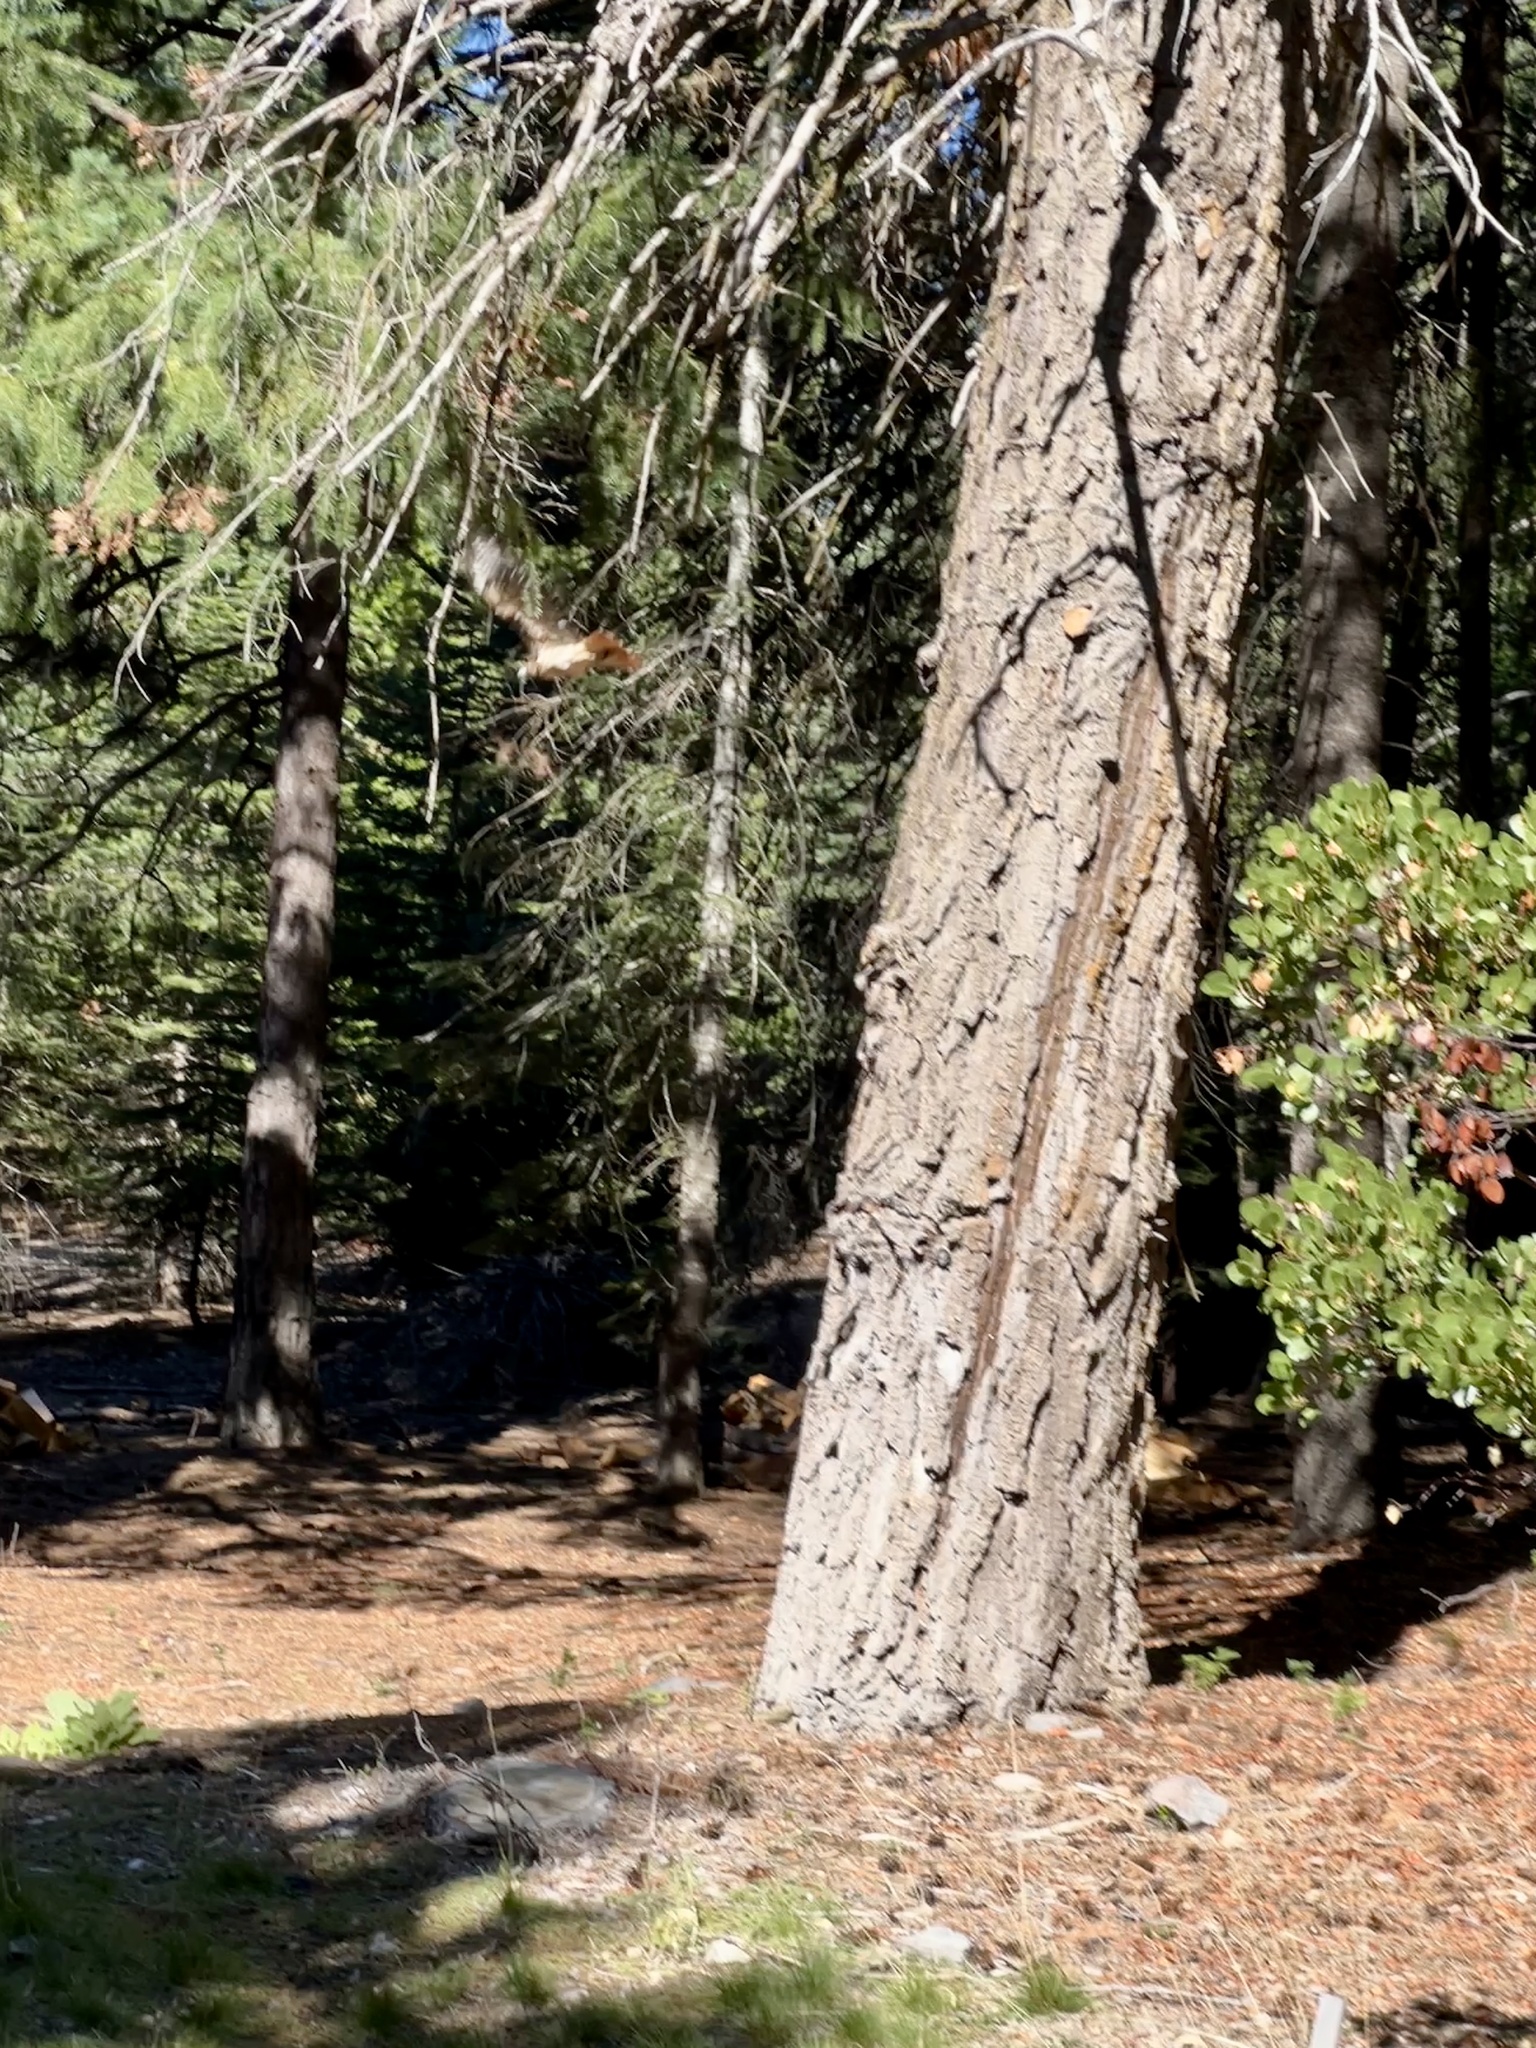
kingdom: Animalia
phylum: Chordata
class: Aves
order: Accipitriformes
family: Accipitridae
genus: Buteo
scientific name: Buteo jamaicensis
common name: Red-tailed hawk
